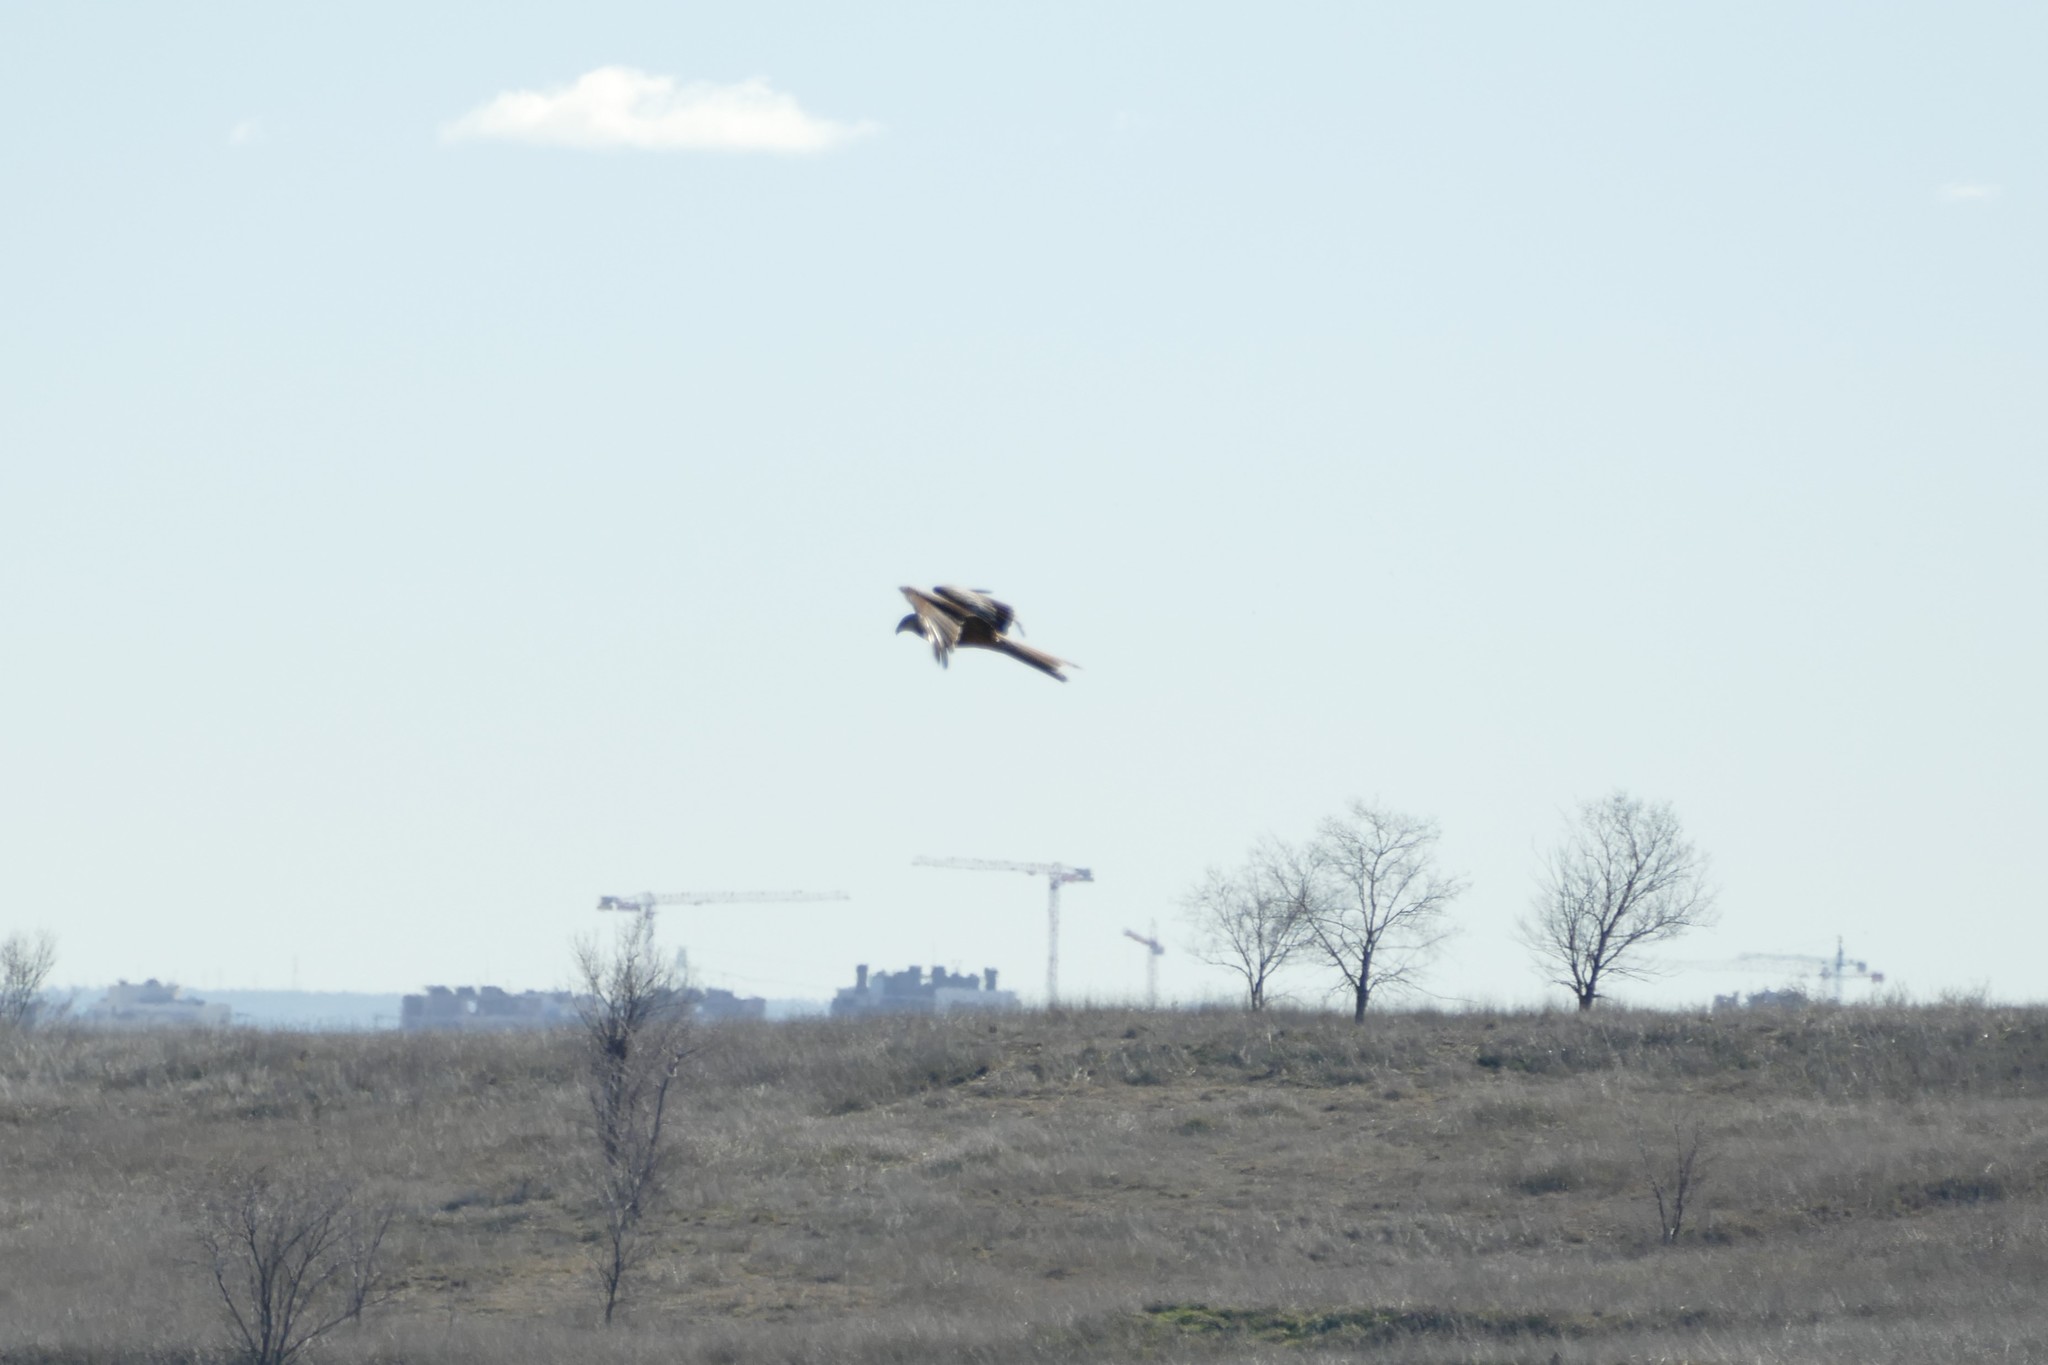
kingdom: Animalia
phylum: Chordata
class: Aves
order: Accipitriformes
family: Accipitridae
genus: Milvus
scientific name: Milvus milvus
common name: Red kite
